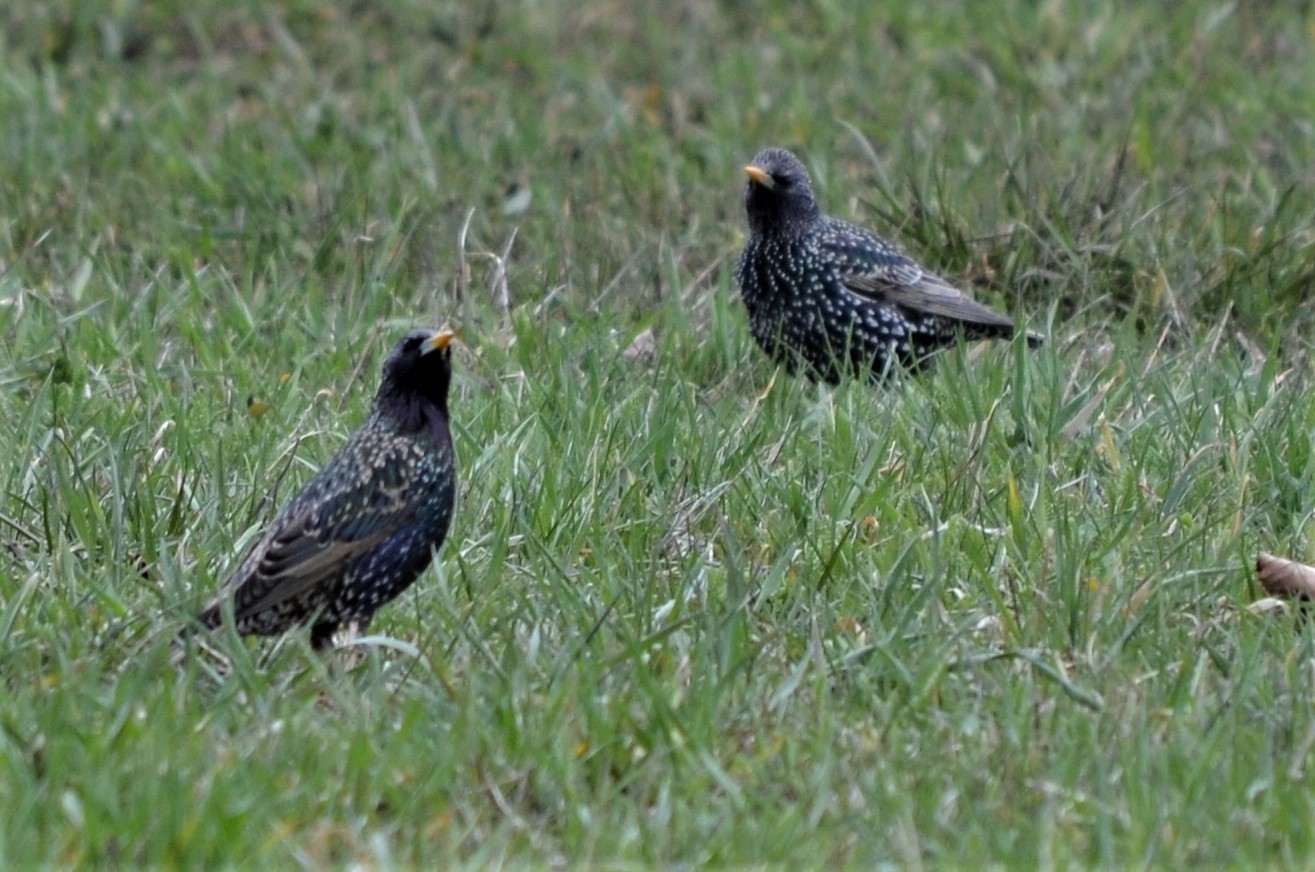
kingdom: Animalia
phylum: Chordata
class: Aves
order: Passeriformes
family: Sturnidae
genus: Sturnus
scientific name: Sturnus vulgaris
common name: Common starling
